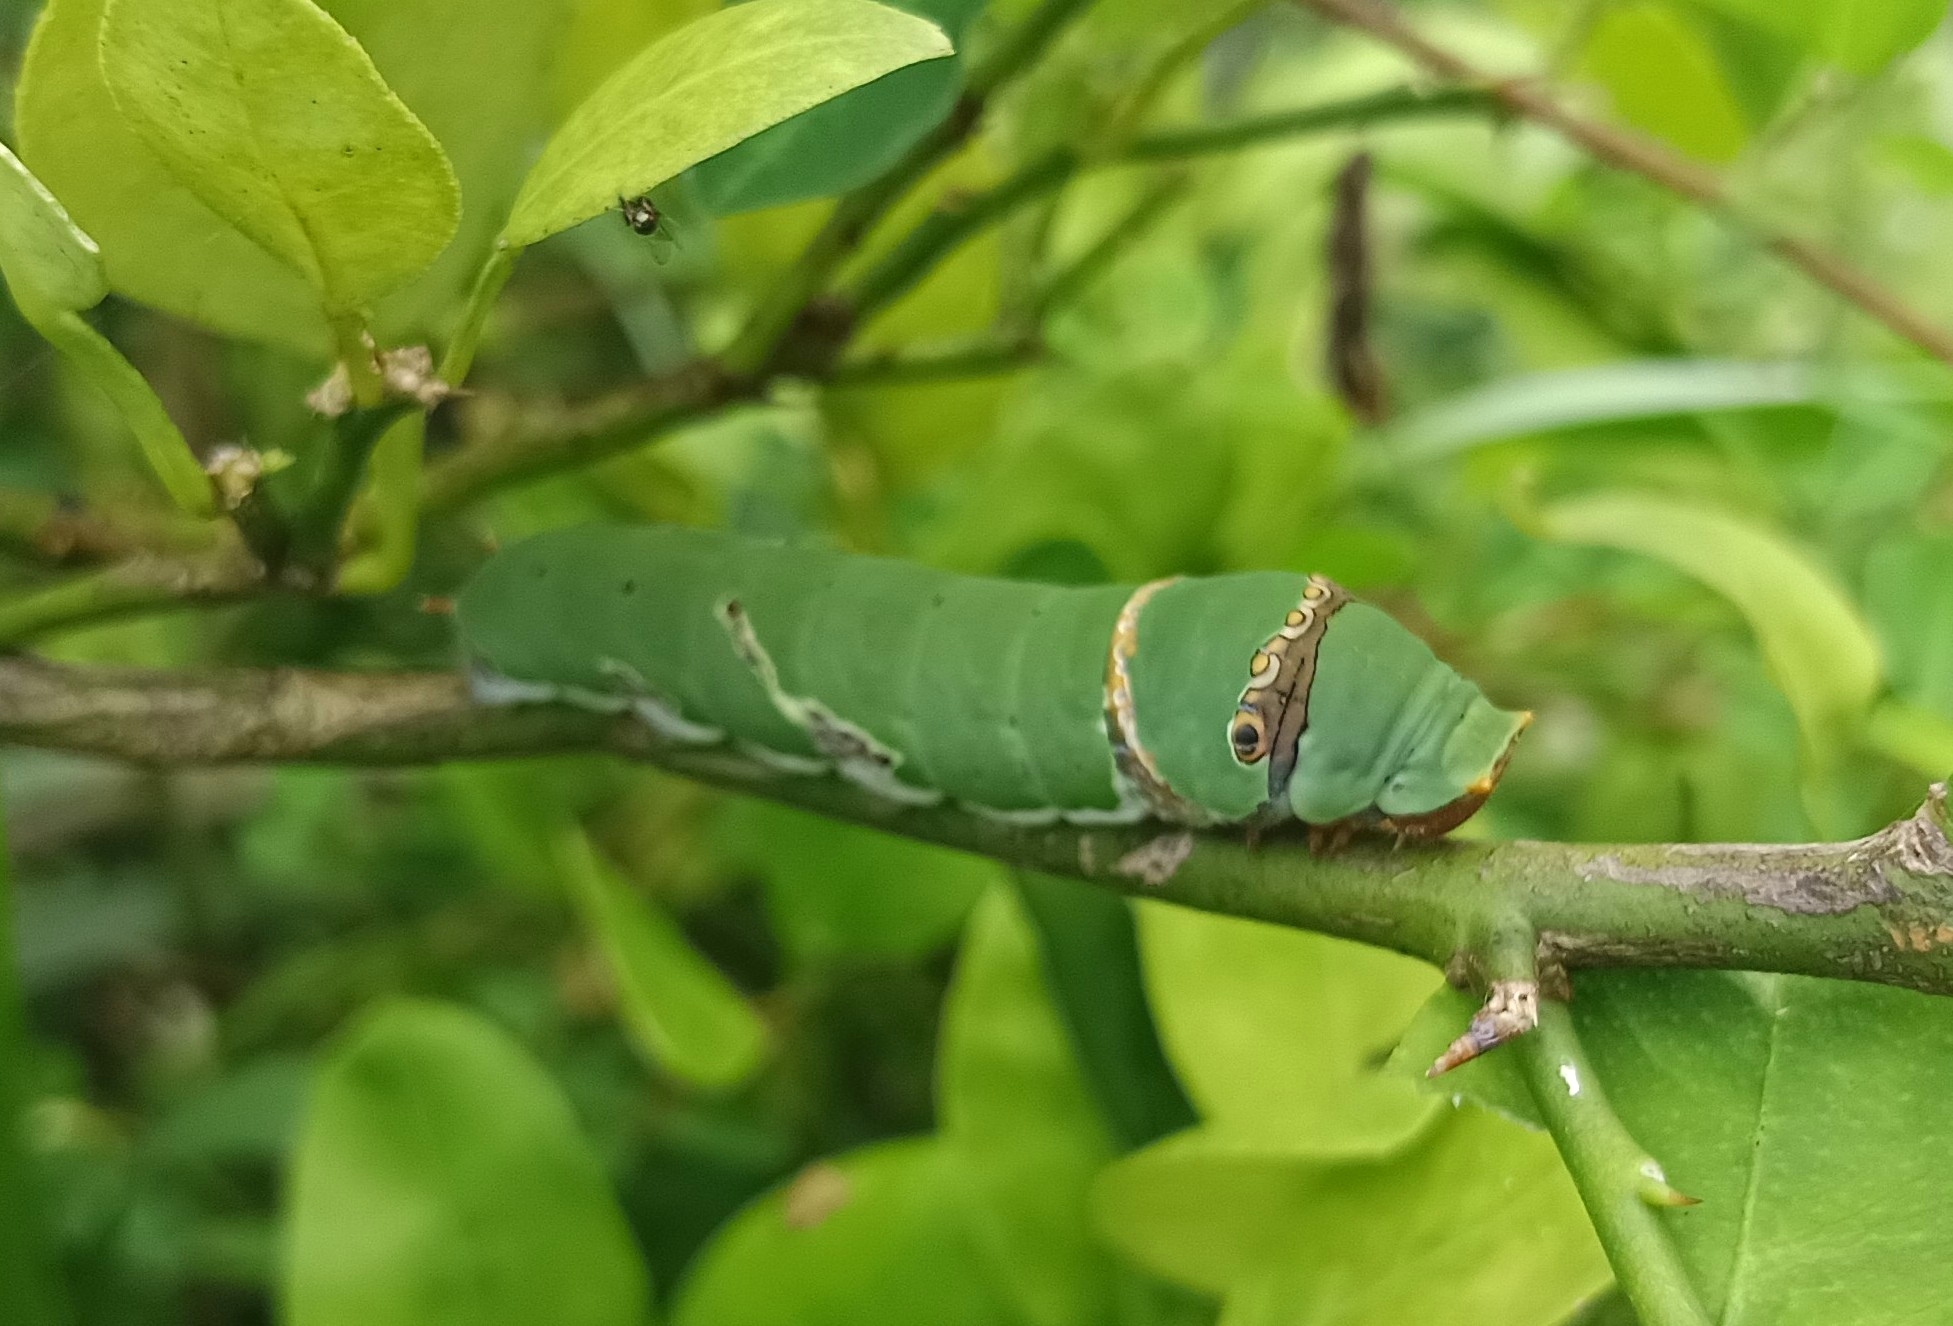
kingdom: Animalia
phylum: Arthropoda
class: Insecta
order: Lepidoptera
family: Papilionidae
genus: Papilio
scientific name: Papilio demoleus
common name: Lime butterfly
